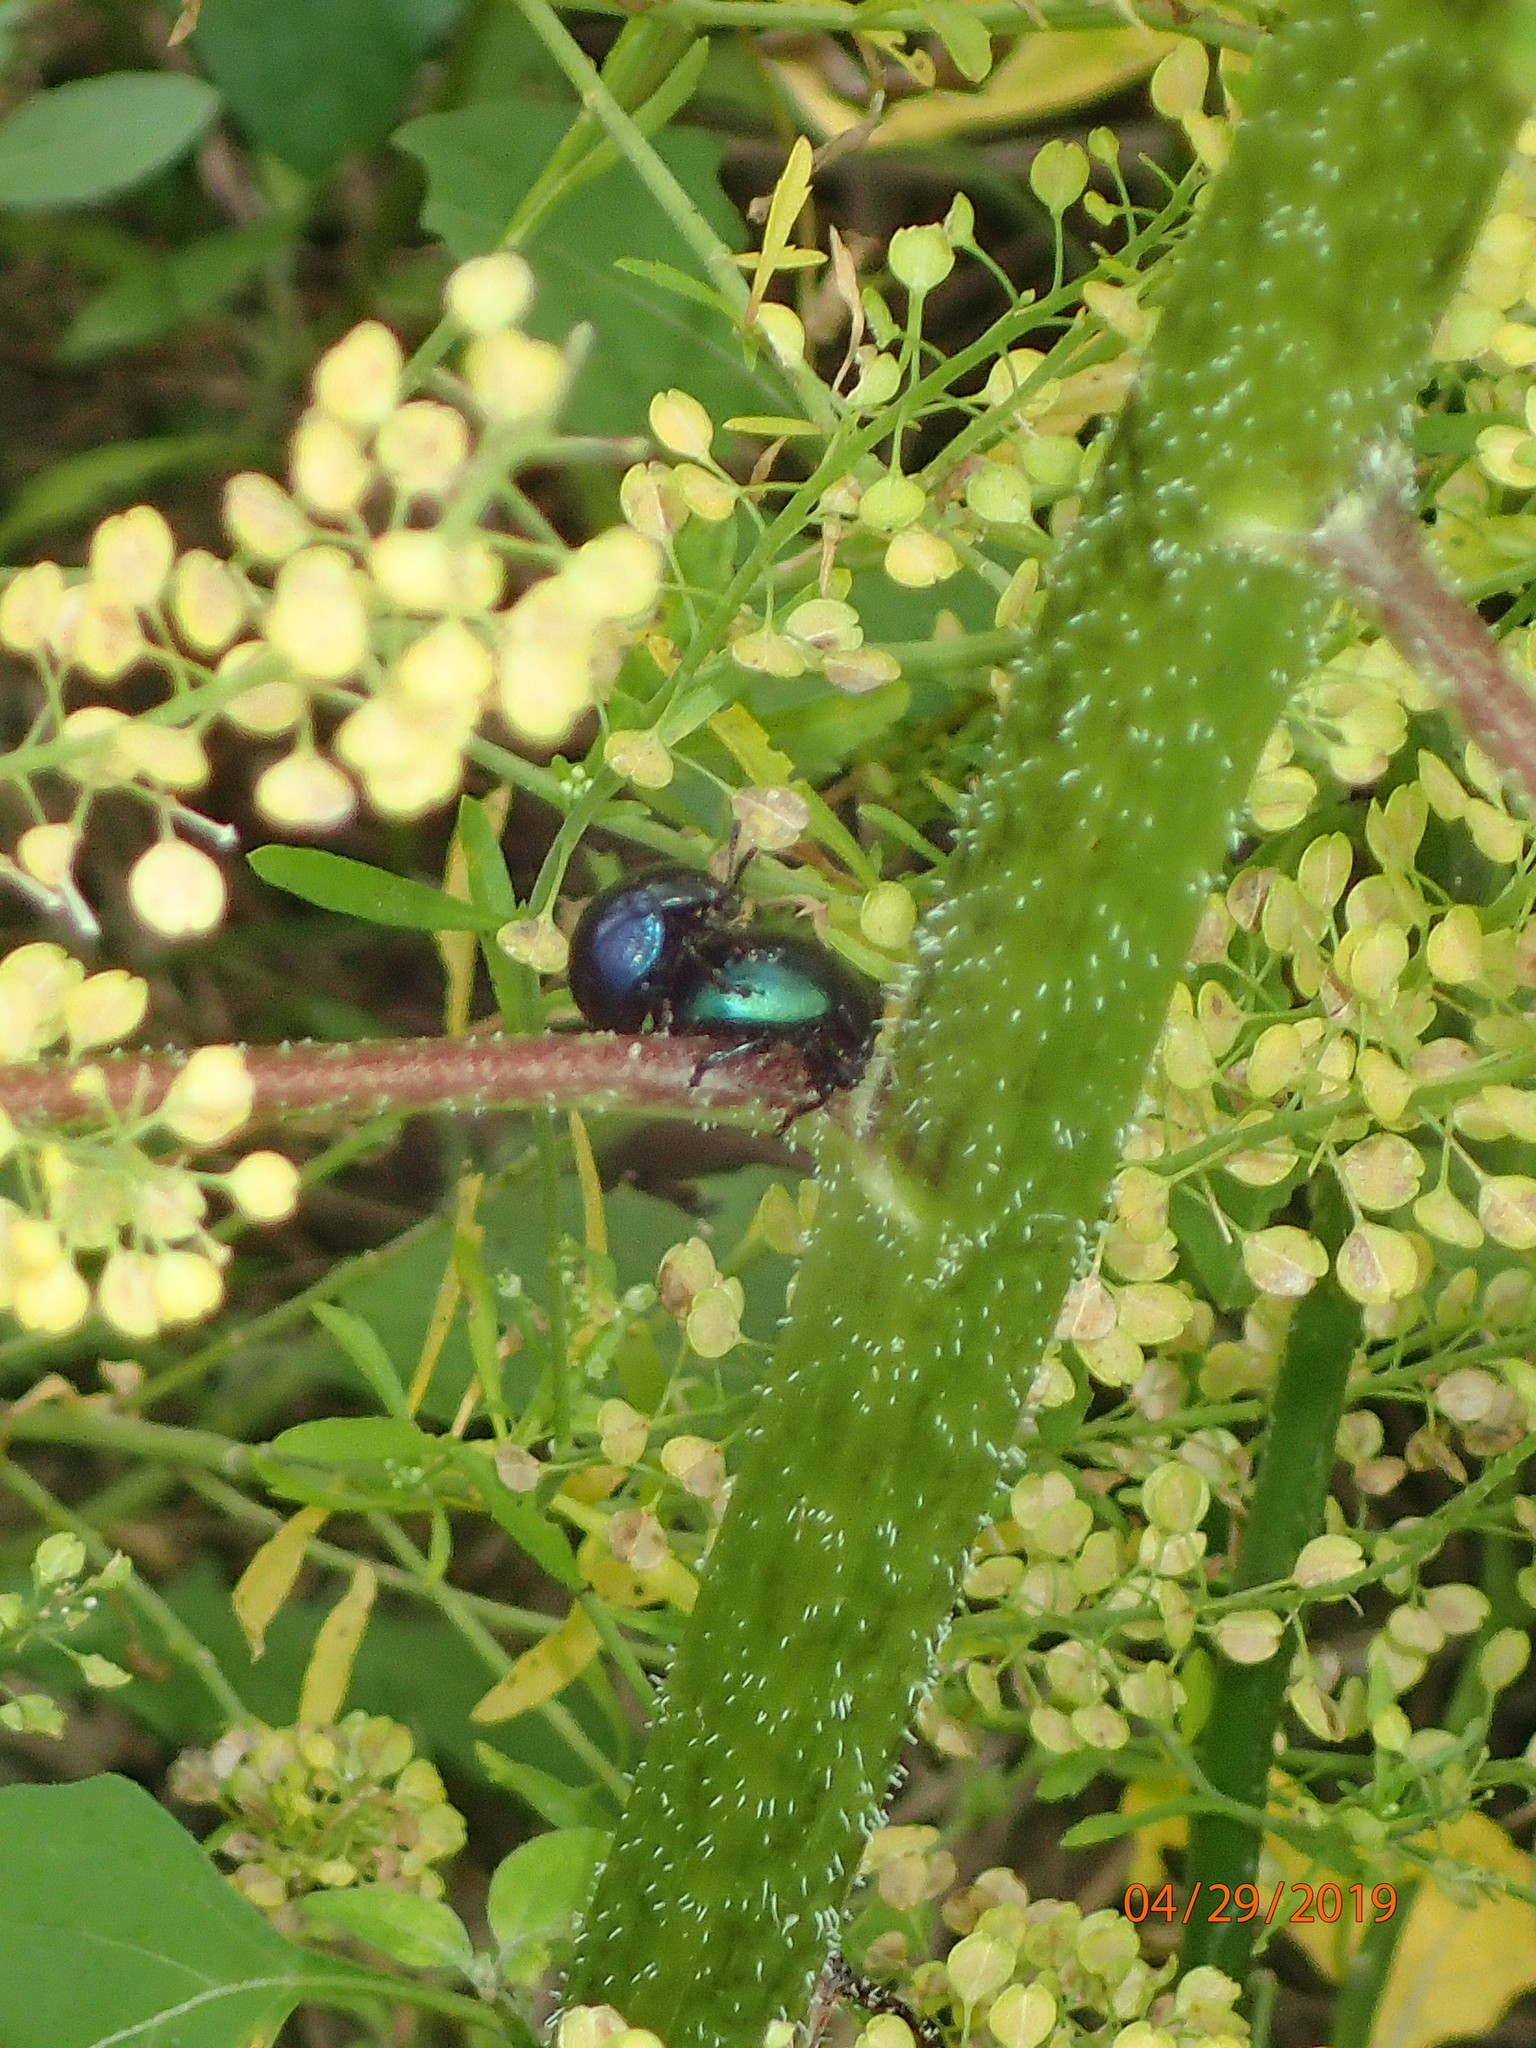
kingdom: Animalia
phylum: Arthropoda
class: Insecta
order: Coleoptera
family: Chrysomelidae
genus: Leptinotarsa
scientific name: Leptinotarsa haldemani
